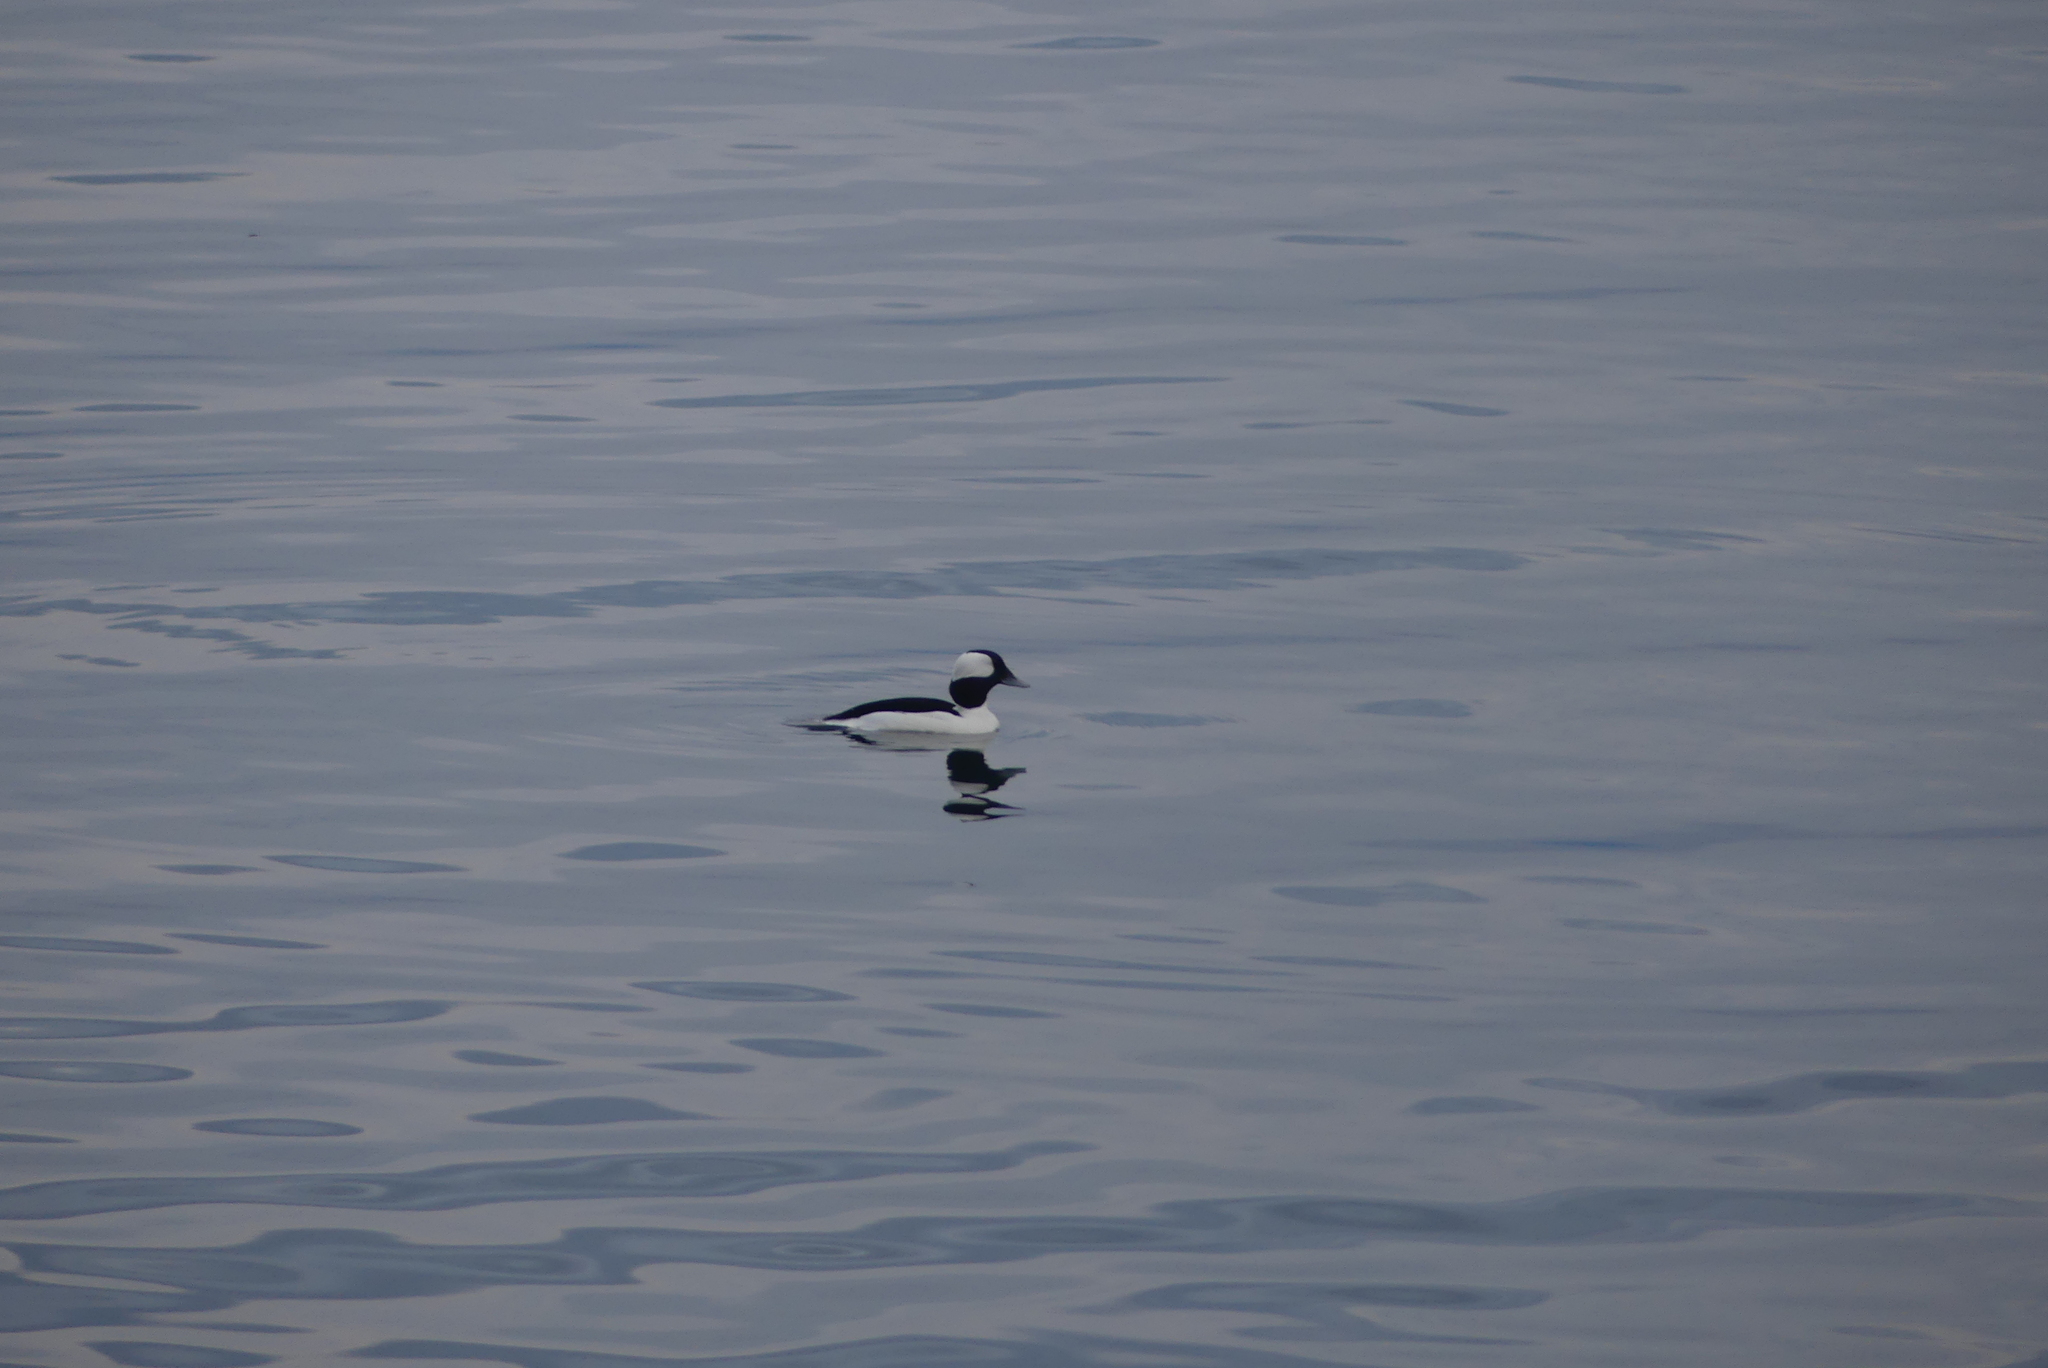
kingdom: Animalia
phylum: Chordata
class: Aves
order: Anseriformes
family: Anatidae
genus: Bucephala
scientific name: Bucephala albeola
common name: Bufflehead
